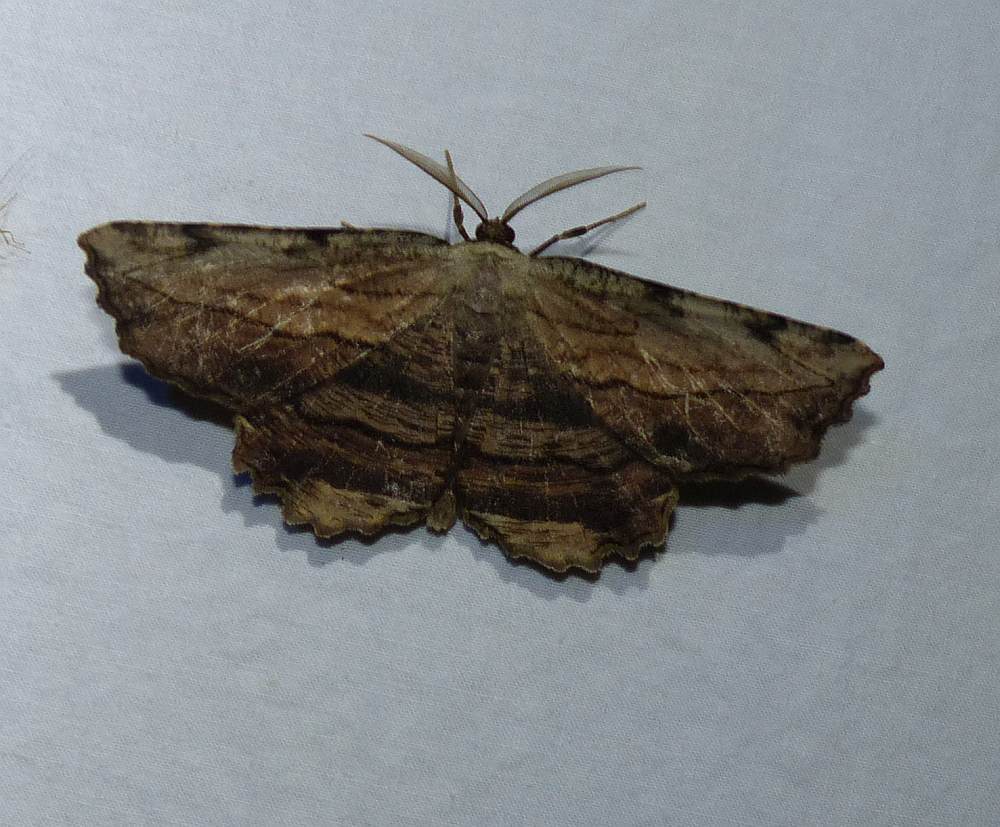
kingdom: Animalia
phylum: Arthropoda
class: Insecta
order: Lepidoptera
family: Geometridae
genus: Lytrosis
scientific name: Lytrosis unitaria
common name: Common lytrosis
